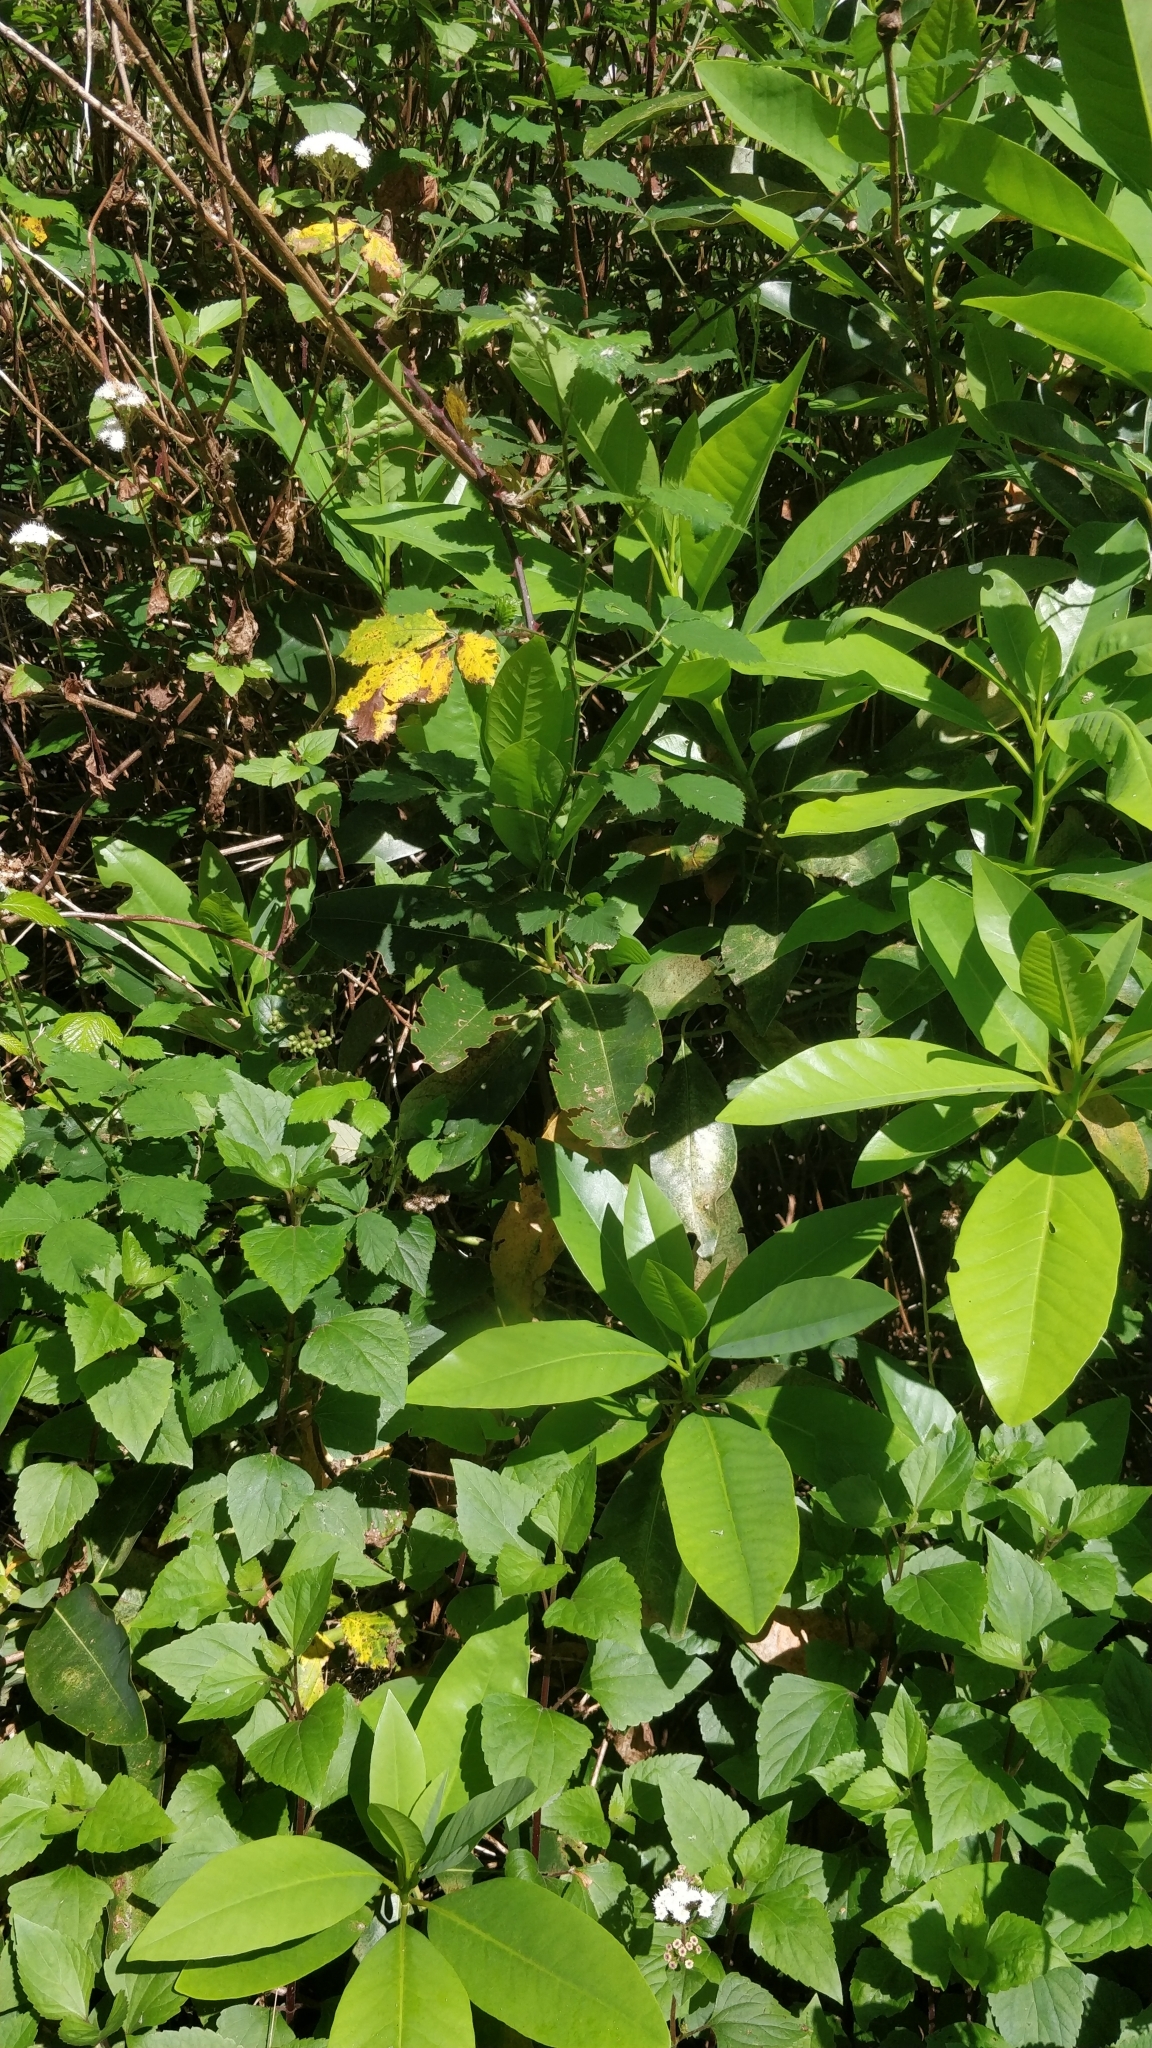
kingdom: Plantae
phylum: Tracheophyta
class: Magnoliopsida
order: Laurales
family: Lauraceae
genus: Persea
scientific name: Persea indica
